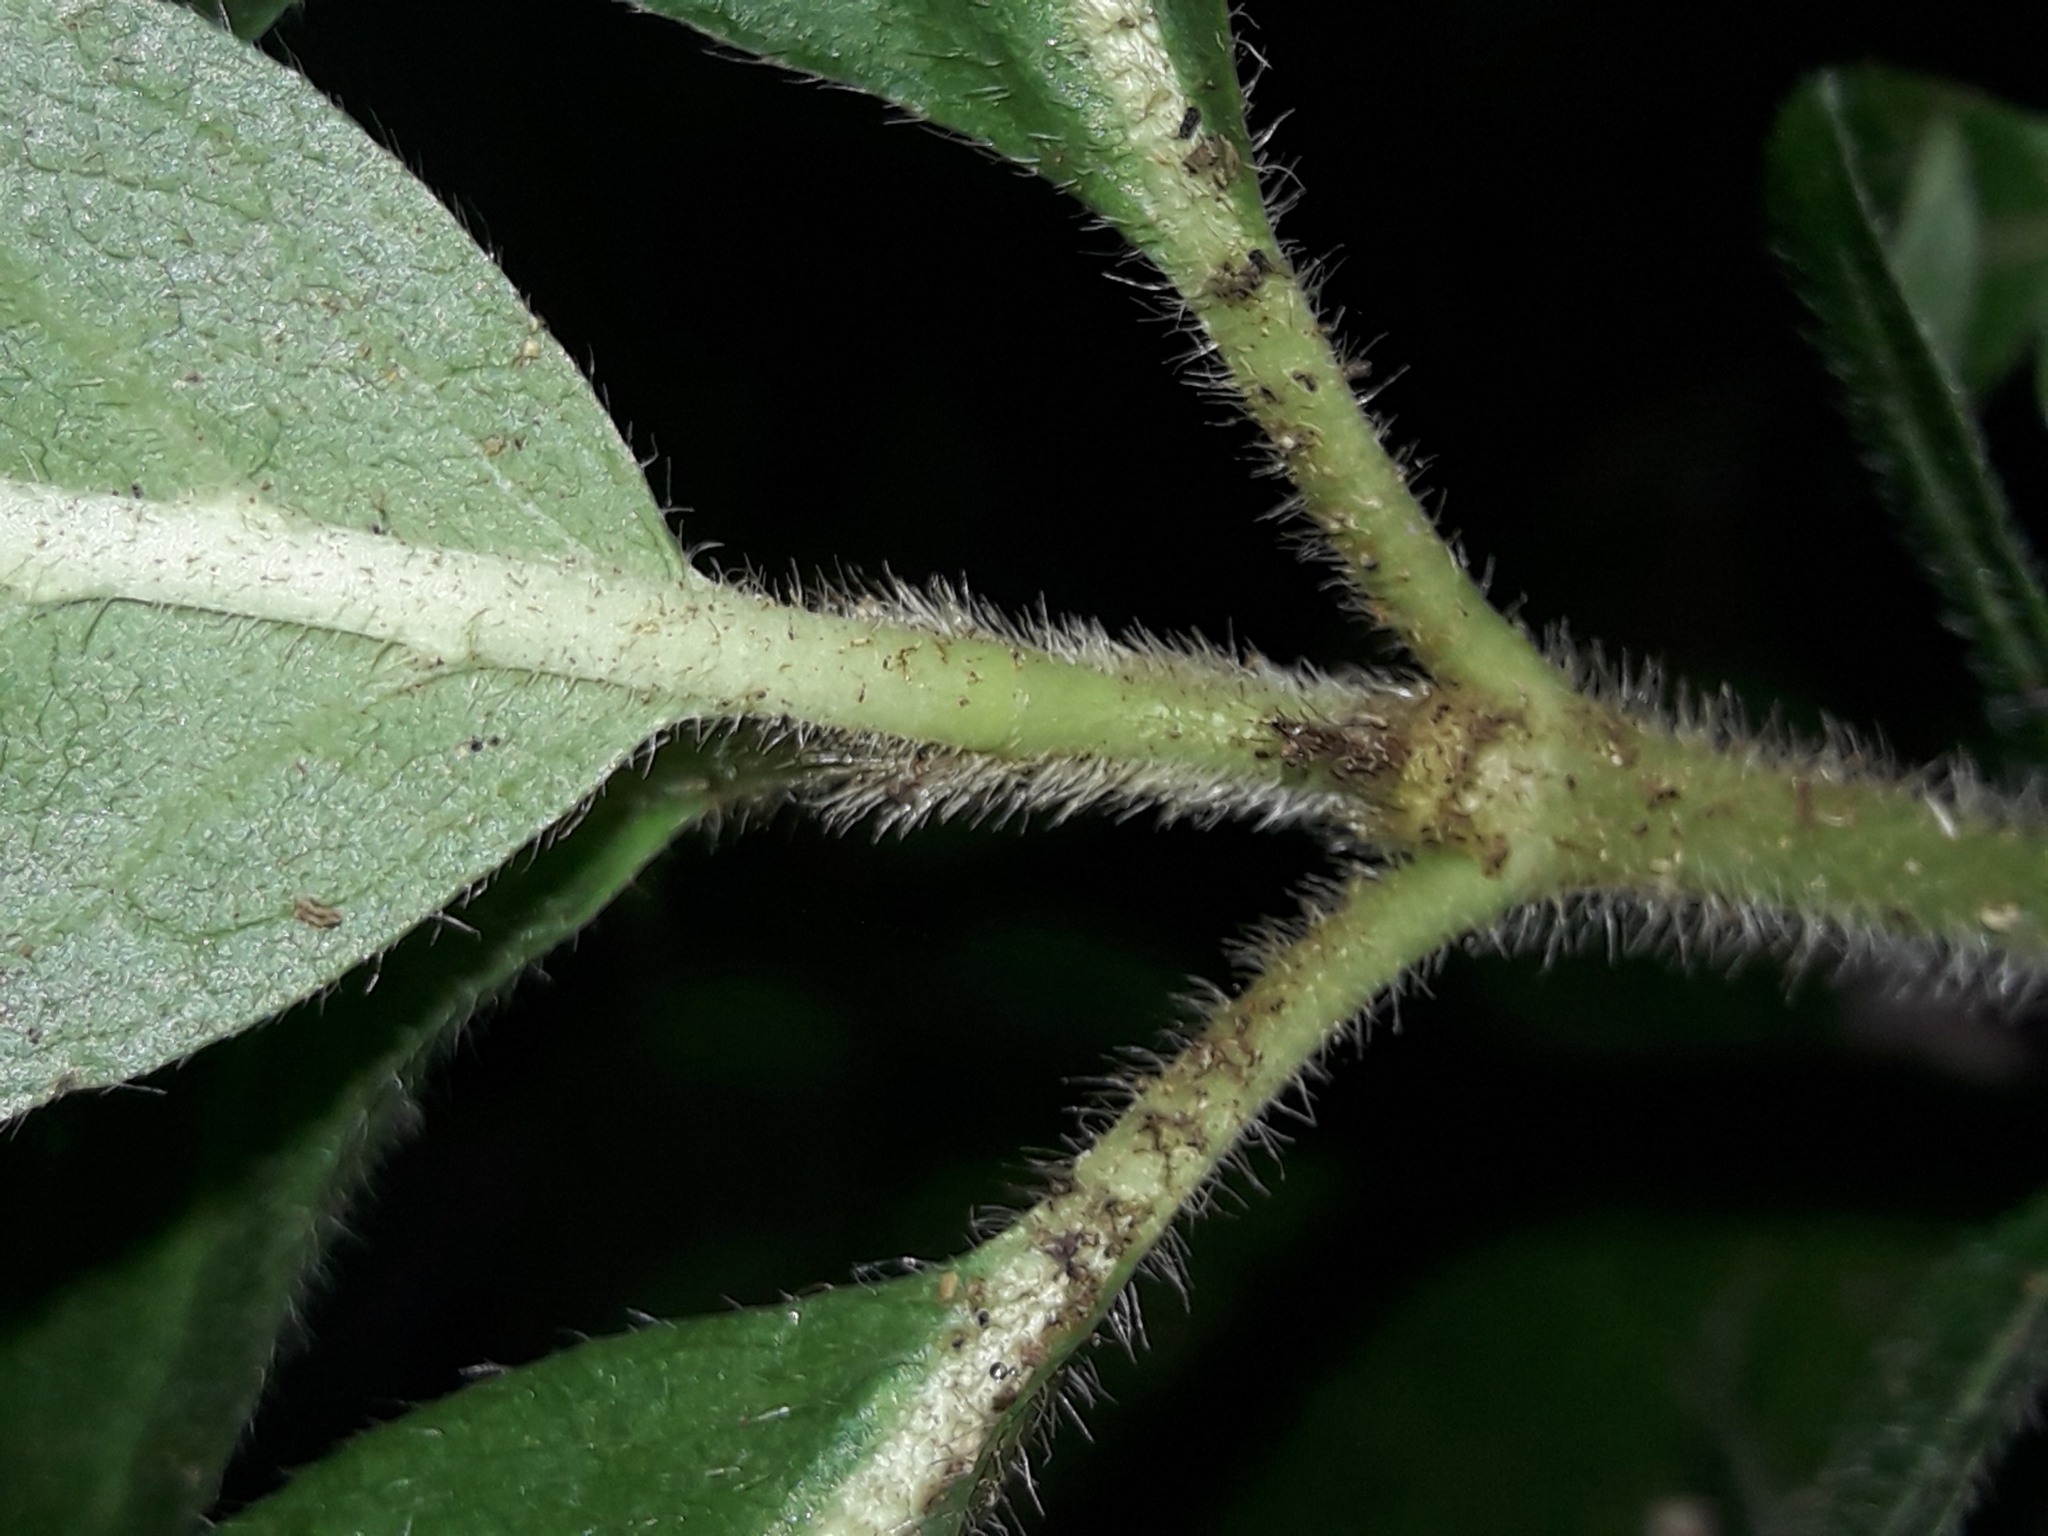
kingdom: Plantae
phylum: Tracheophyta
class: Magnoliopsida
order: Gentianales
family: Rubiaceae
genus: Coprosma
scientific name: Coprosma pilosa
